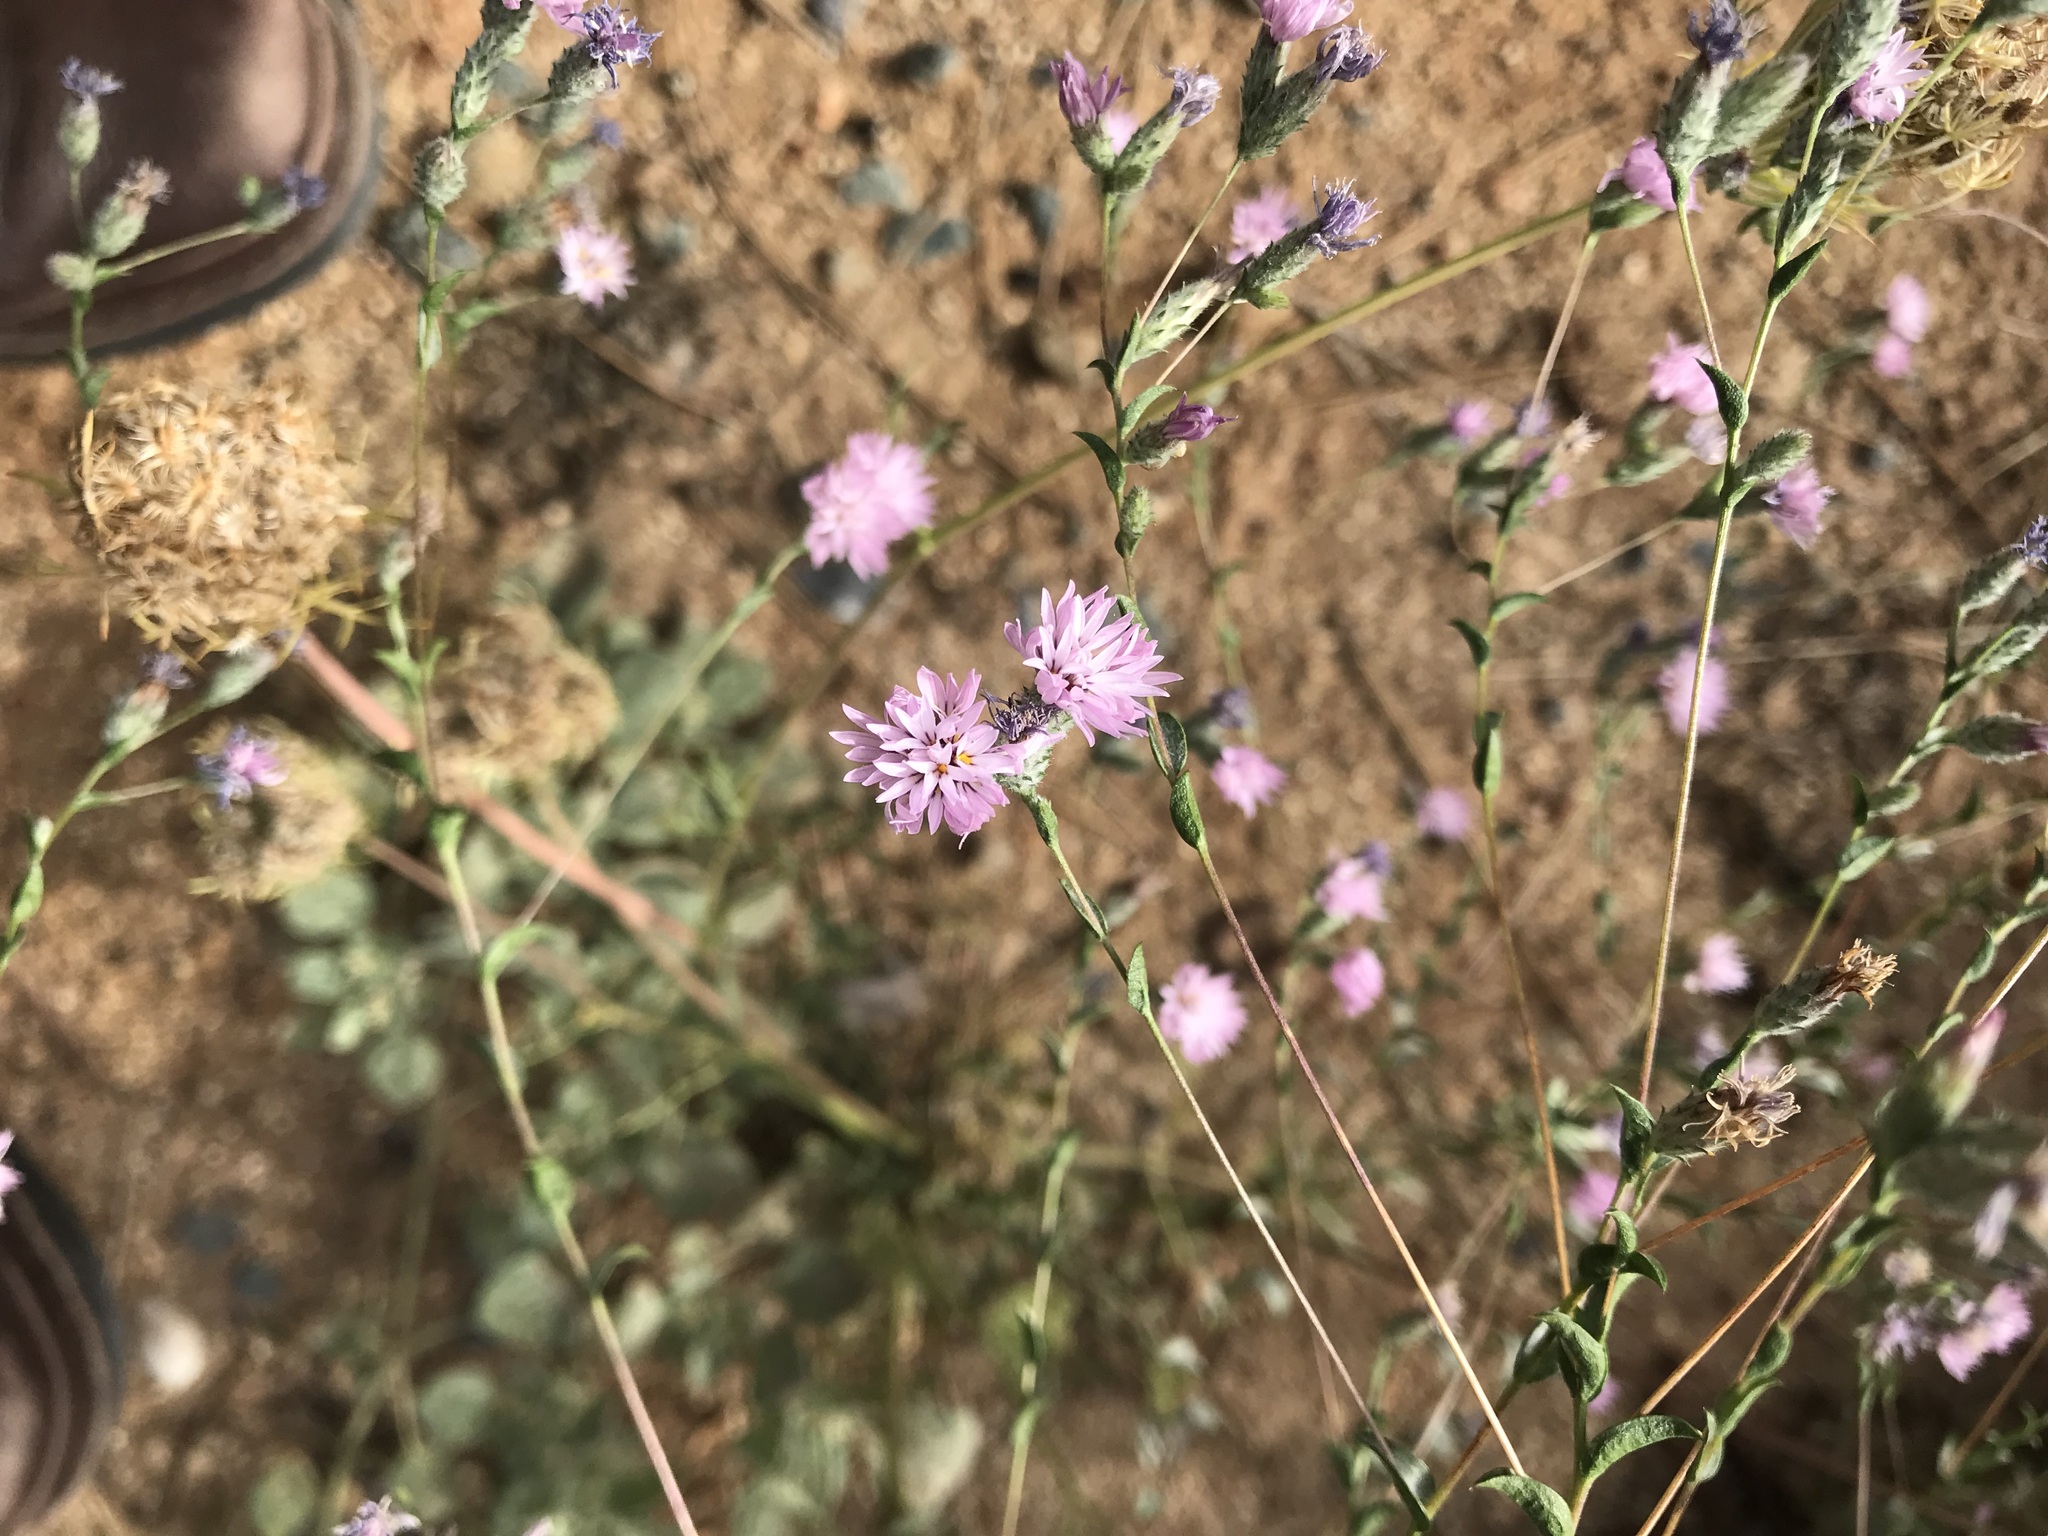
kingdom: Plantae
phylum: Tracheophyta
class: Magnoliopsida
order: Asterales
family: Asteraceae
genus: Lessingia
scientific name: Lessingia leptoclada
